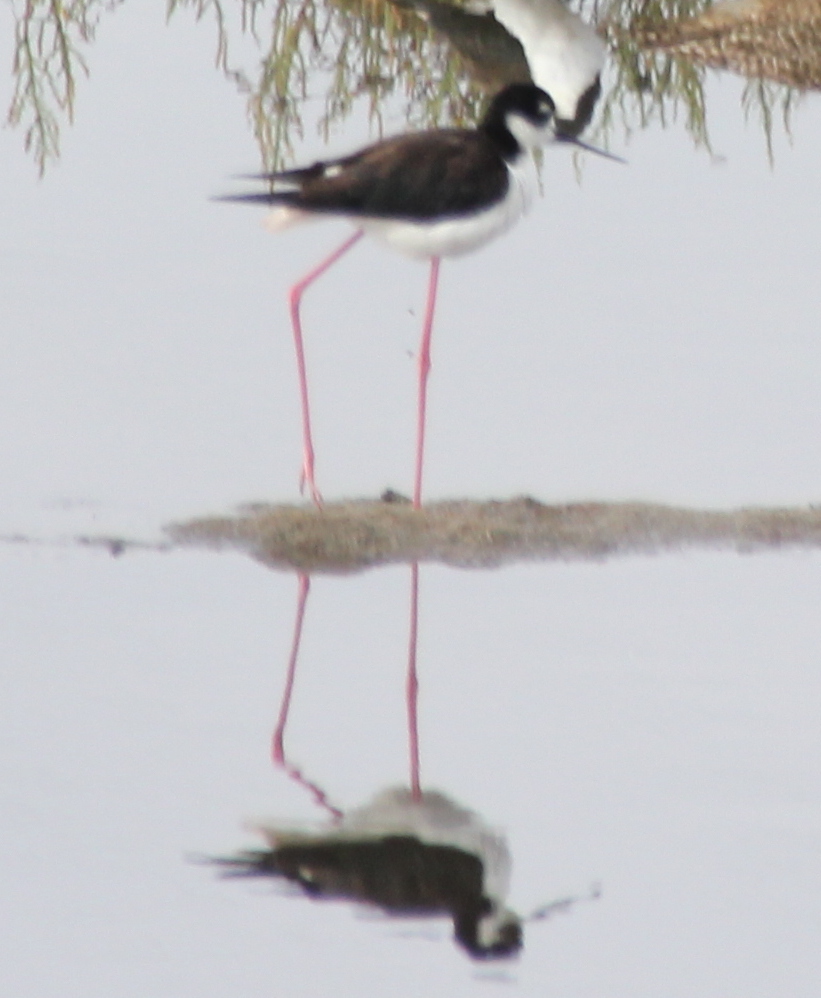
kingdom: Animalia
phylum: Chordata
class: Aves
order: Charadriiformes
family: Recurvirostridae
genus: Himantopus
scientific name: Himantopus mexicanus
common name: Black-necked stilt
